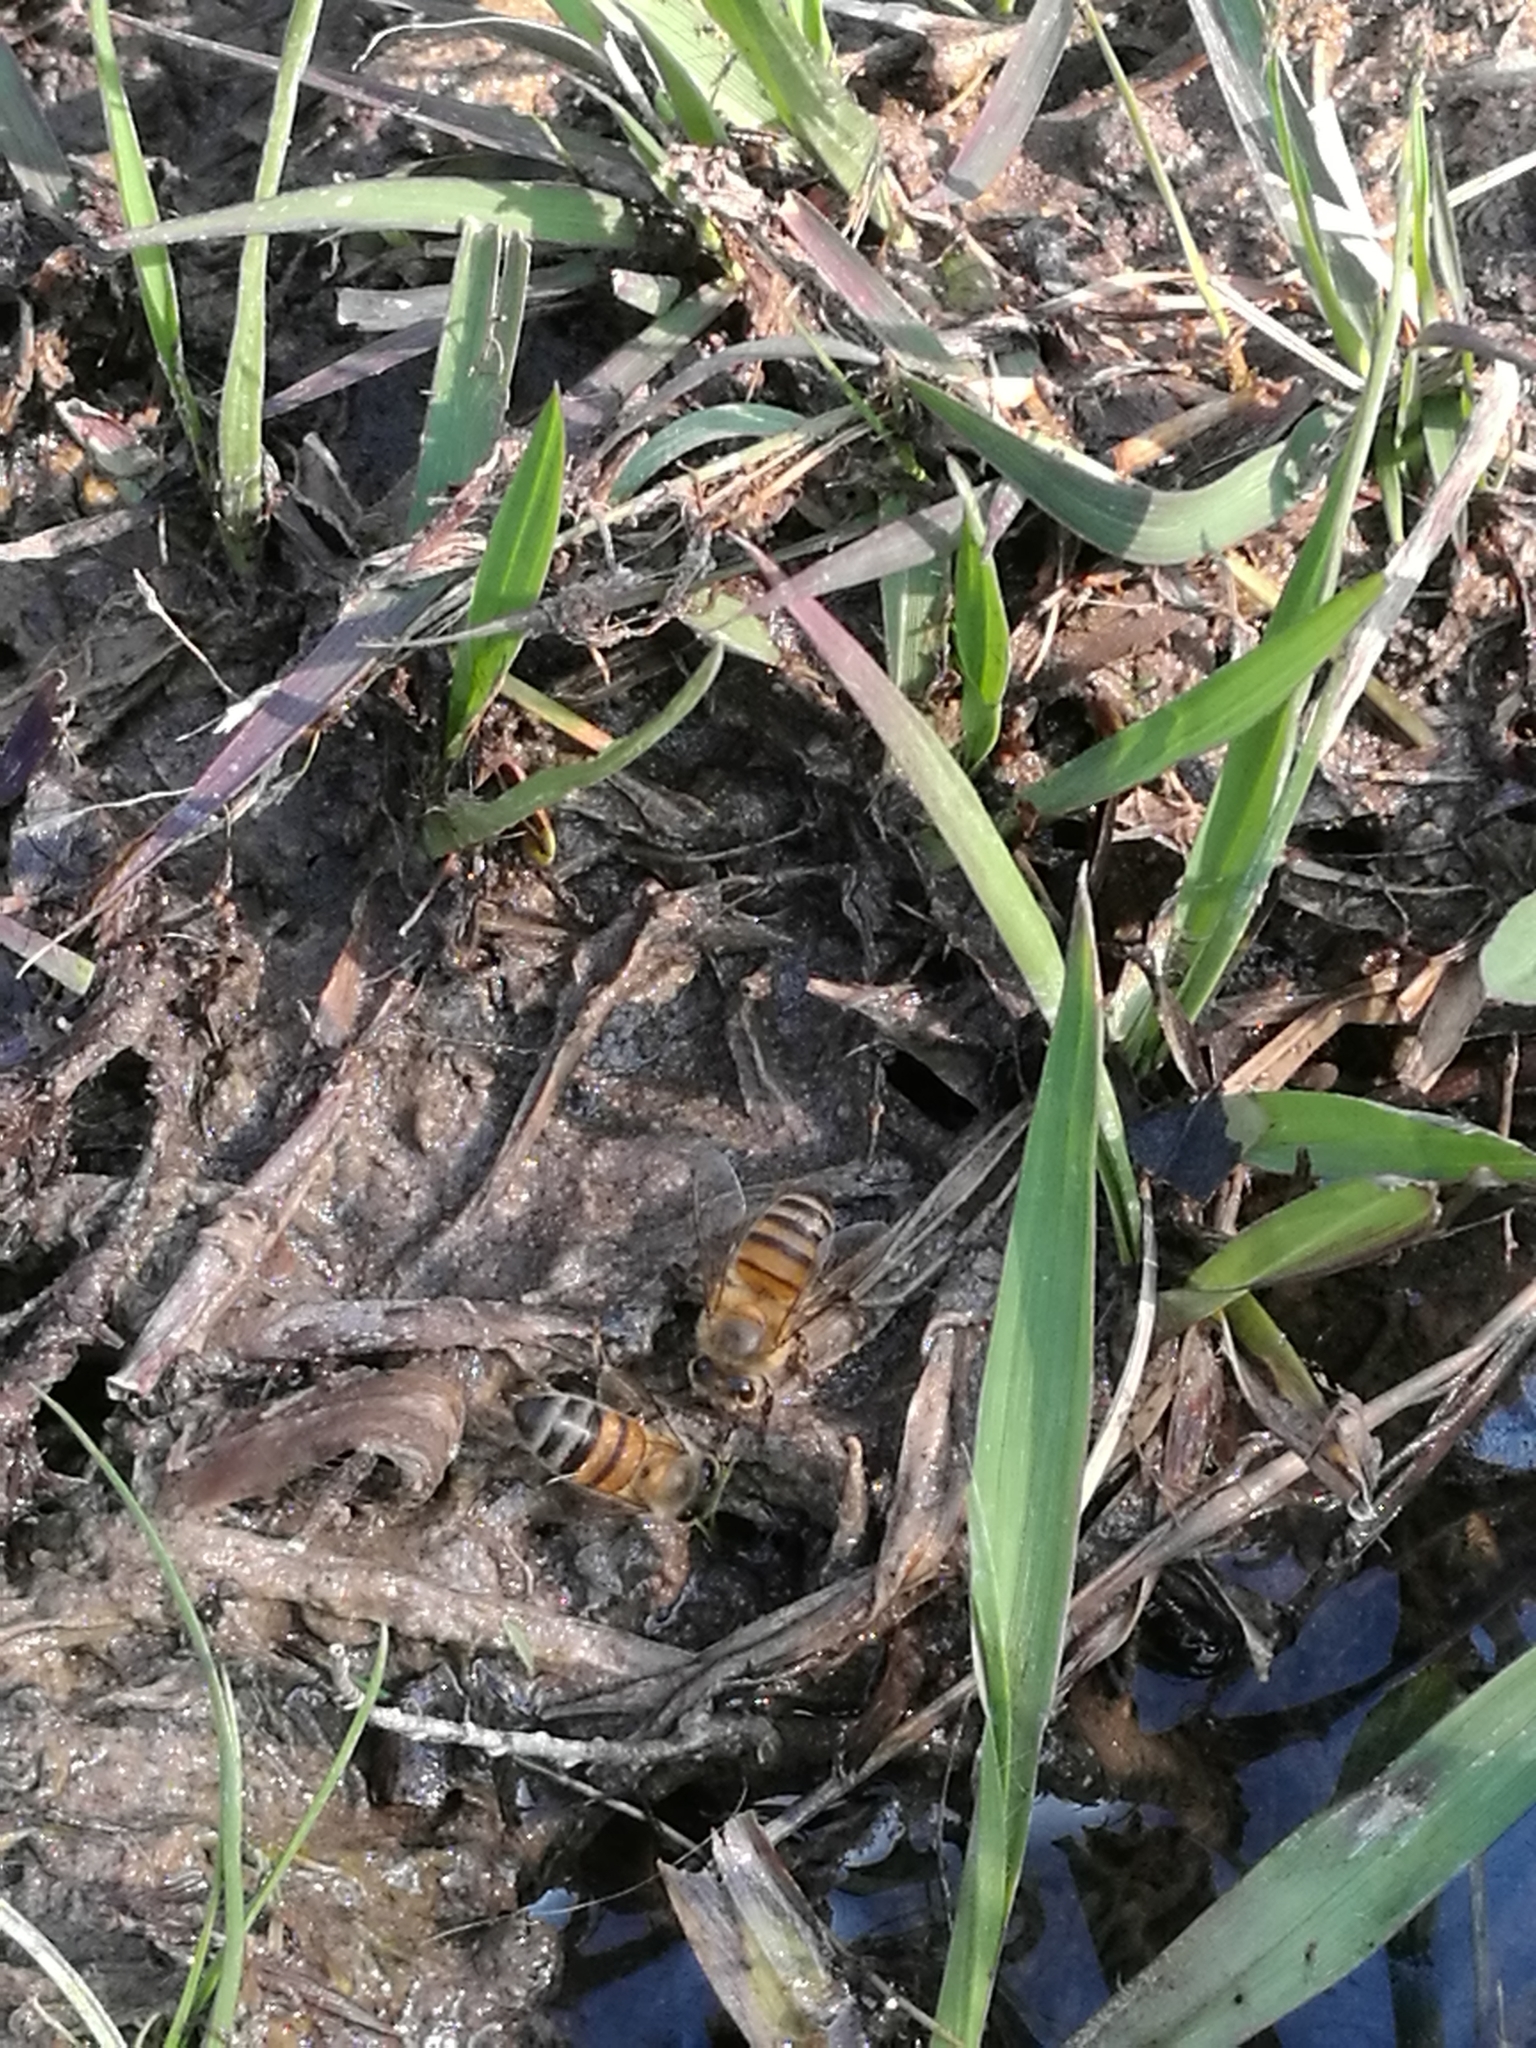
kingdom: Animalia
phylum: Arthropoda
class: Insecta
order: Hymenoptera
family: Apidae
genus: Apis
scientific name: Apis mellifera
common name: Honey bee
